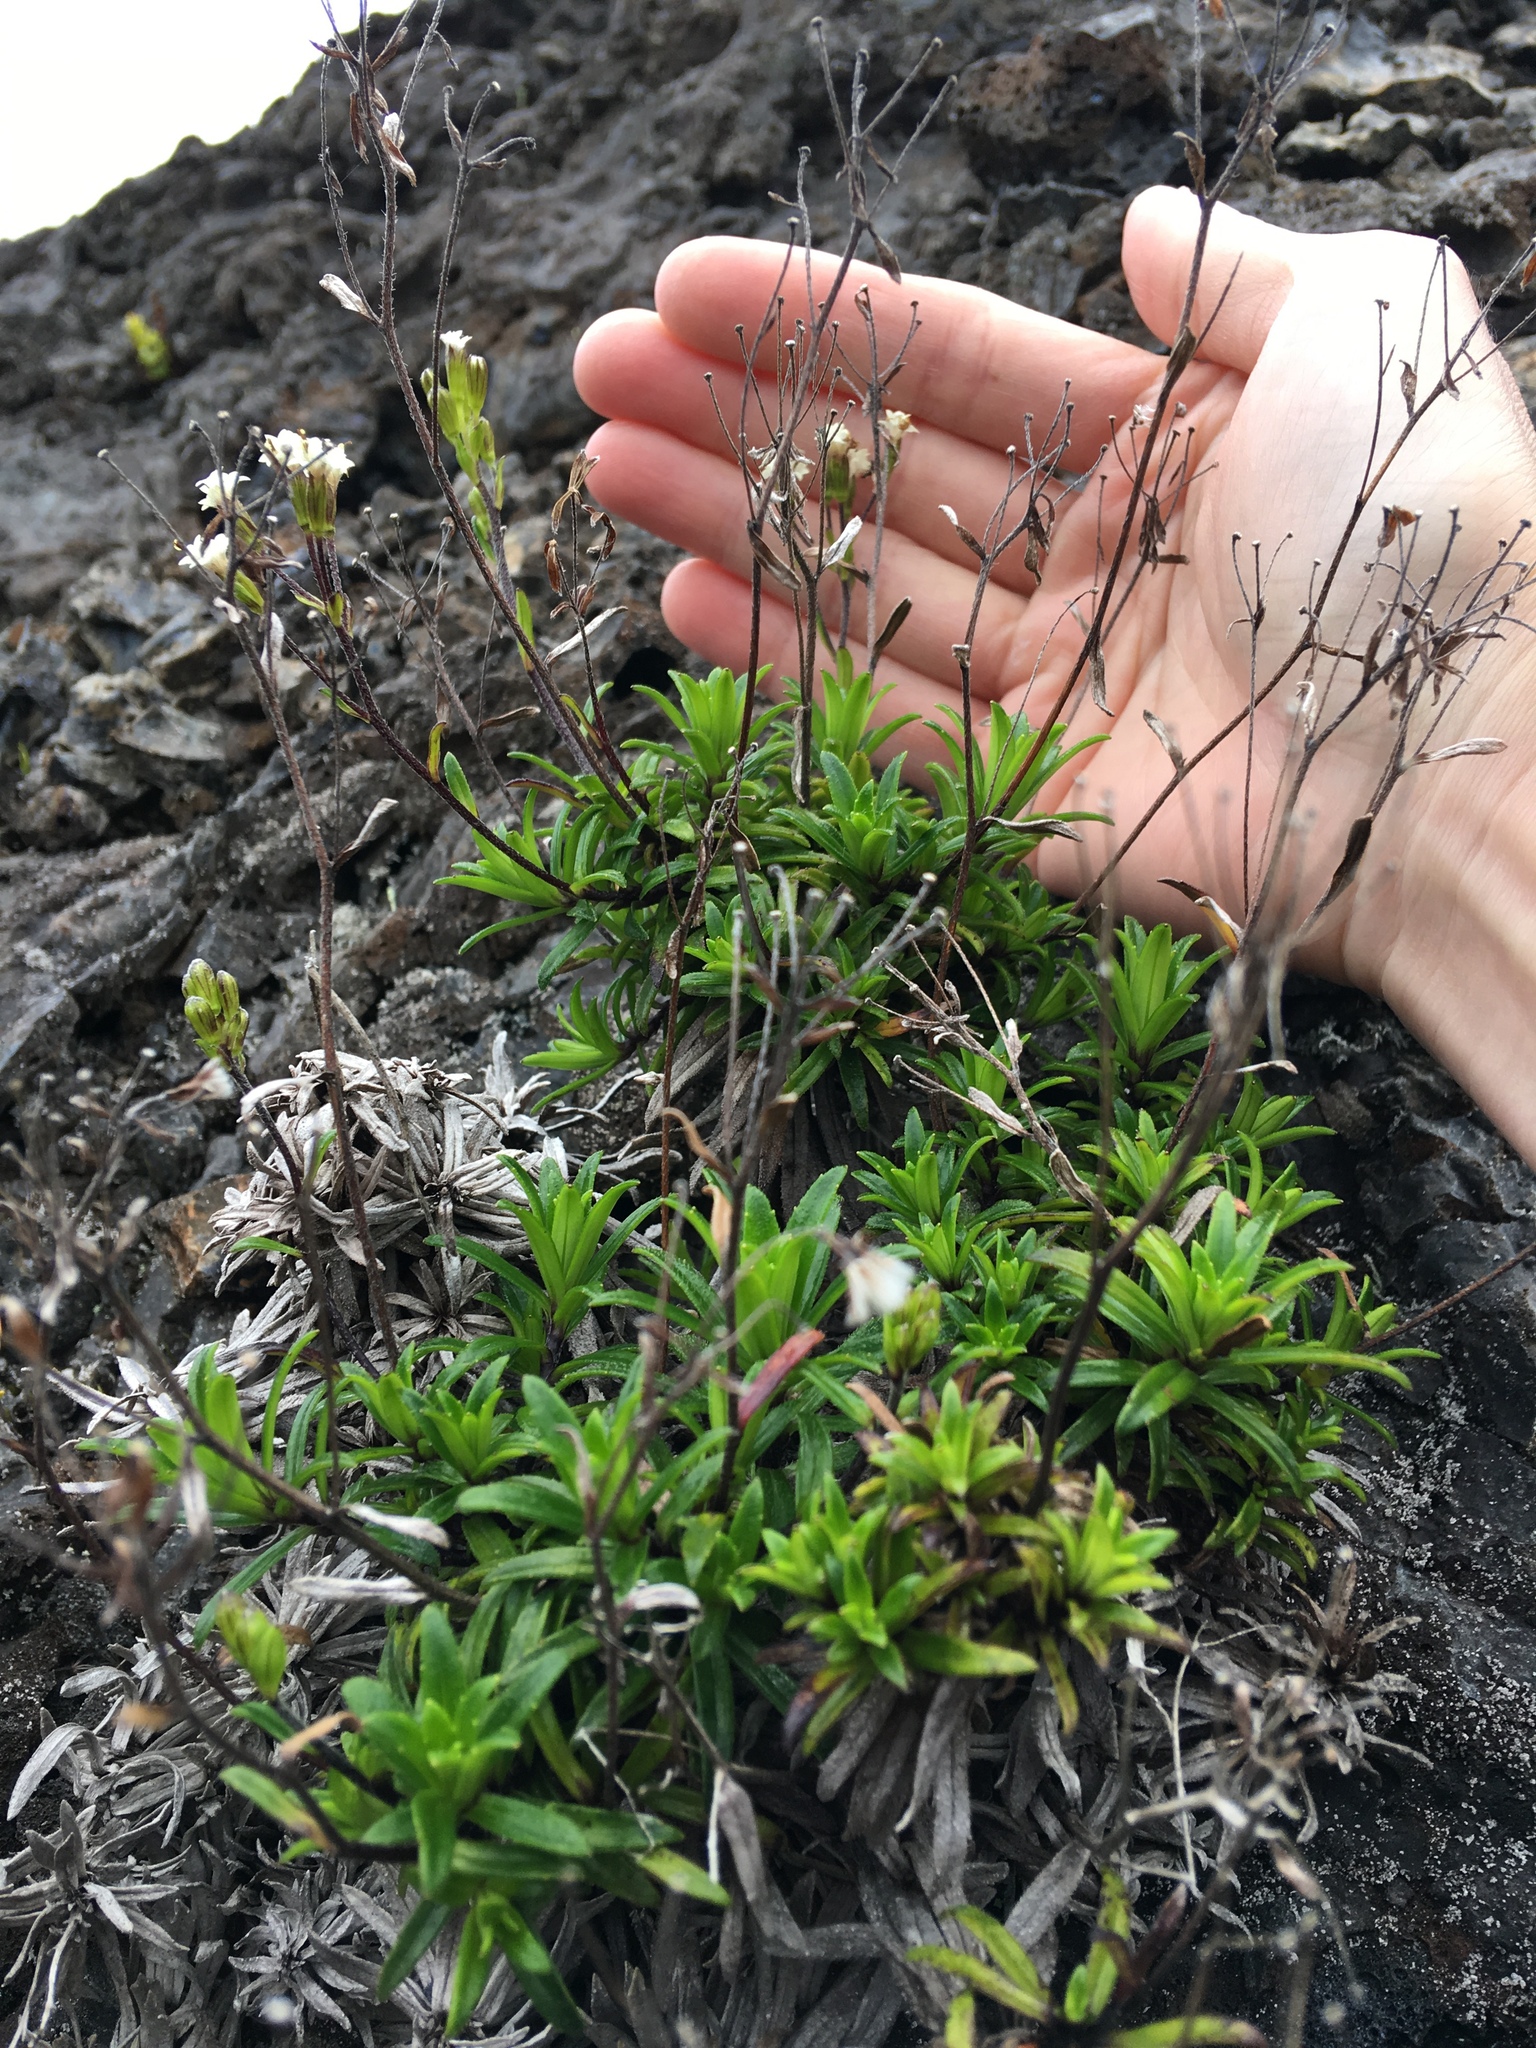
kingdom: Plantae
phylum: Tracheophyta
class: Magnoliopsida
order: Asterales
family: Asteraceae
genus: Dubautia
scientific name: Dubautia scabra
